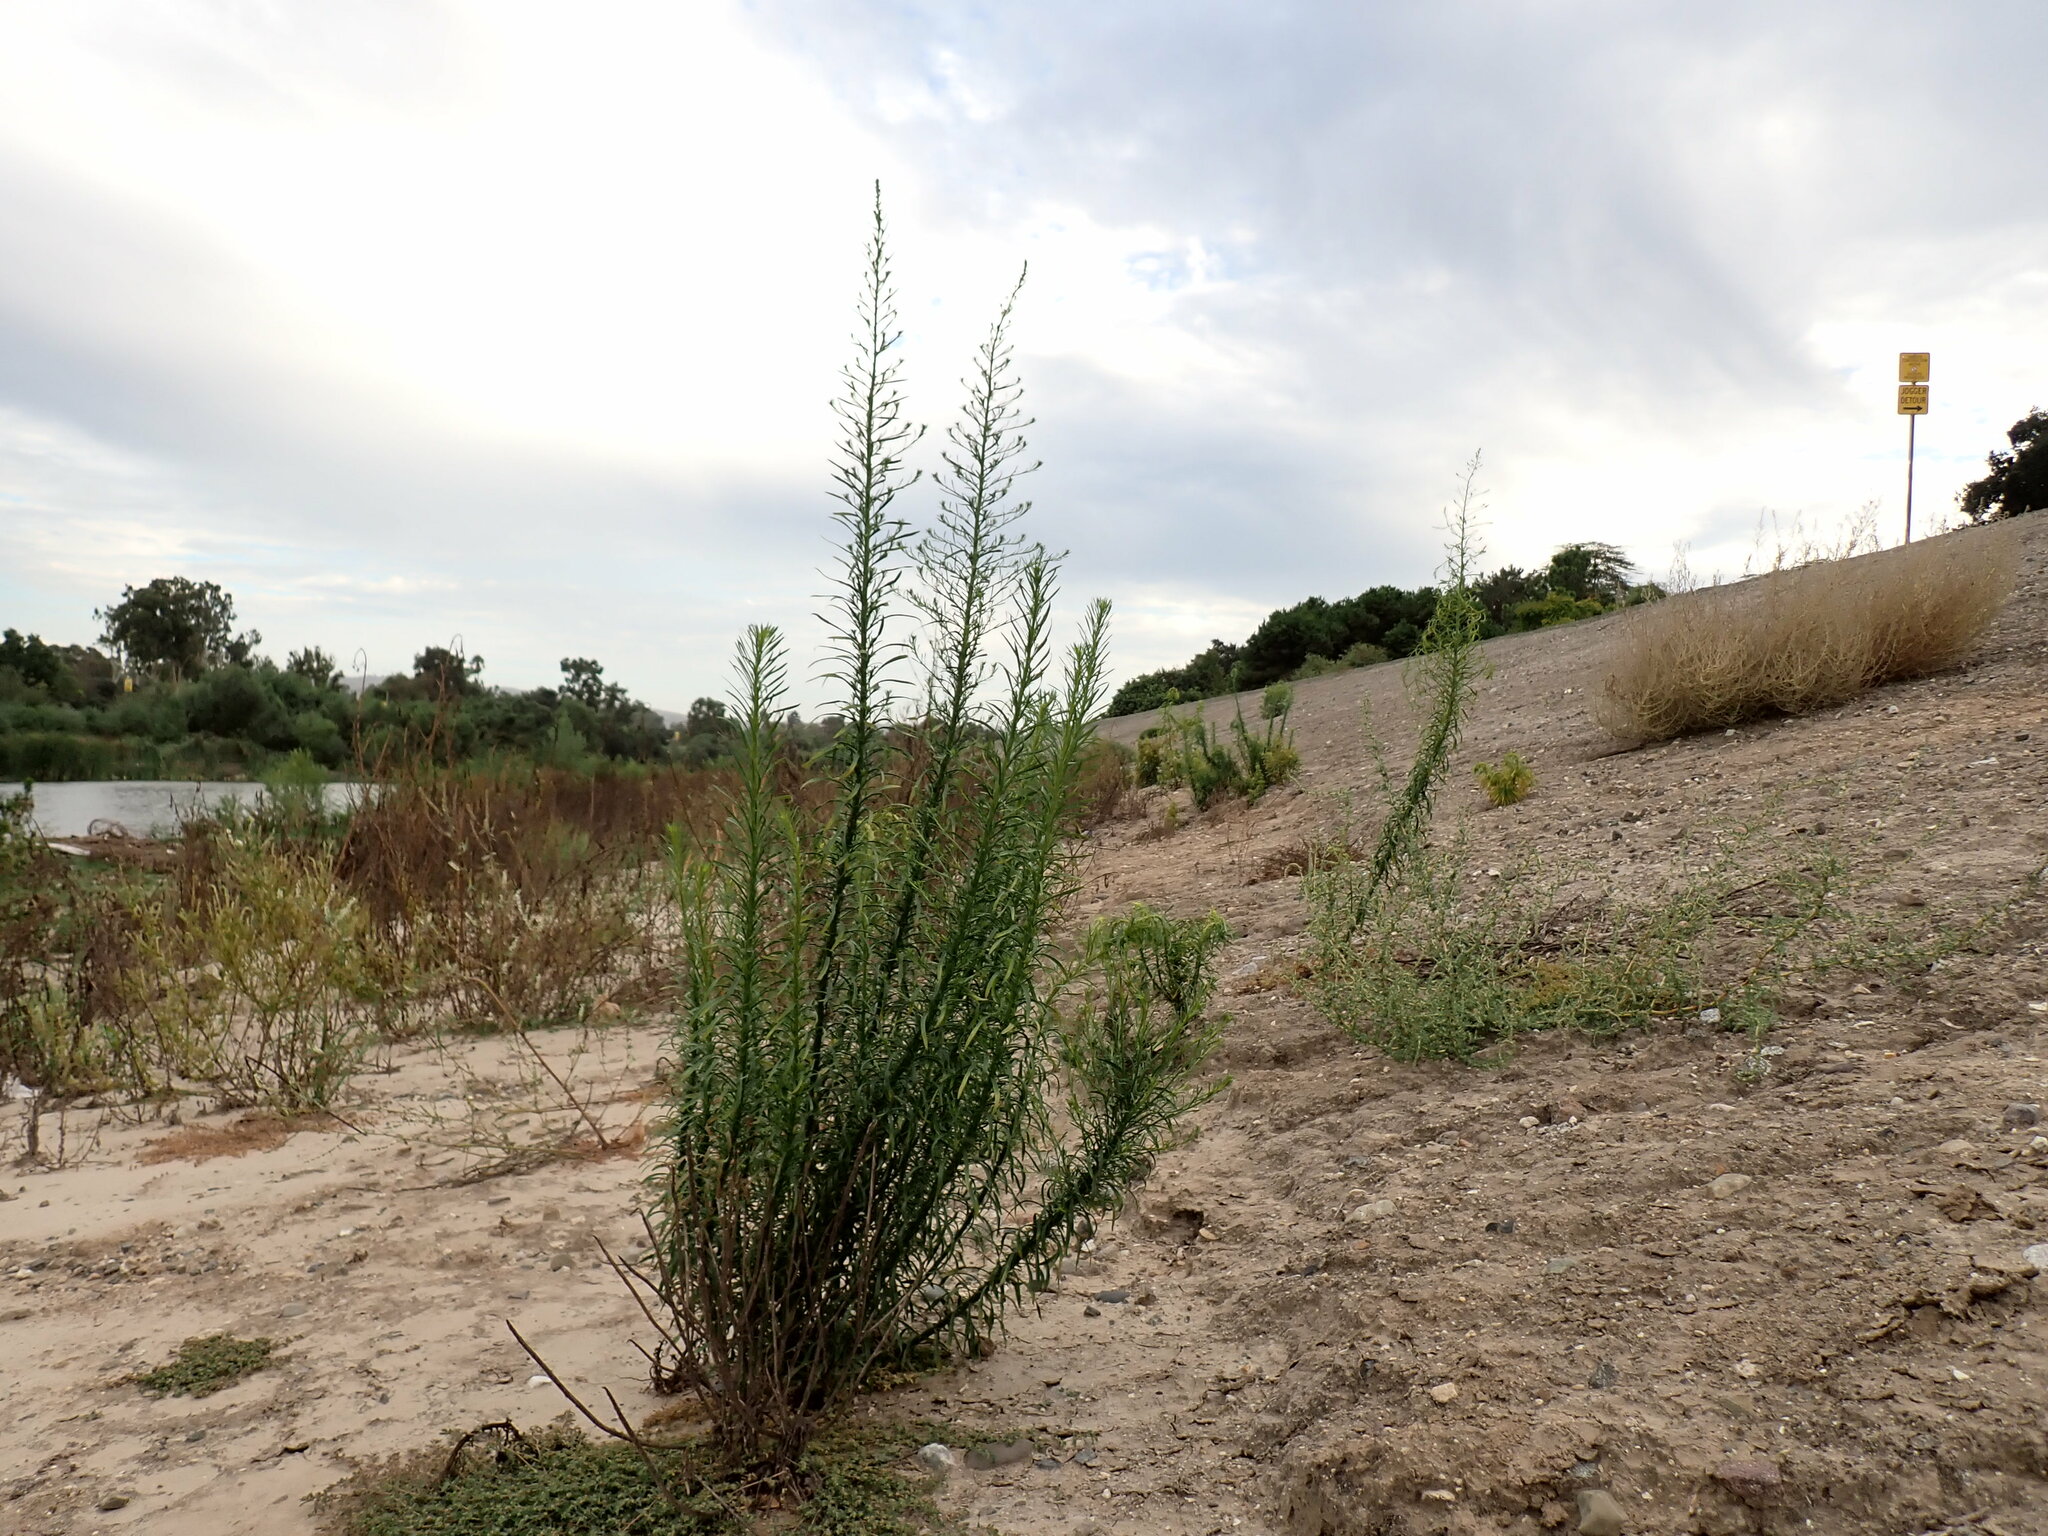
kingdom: Plantae
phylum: Tracheophyta
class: Magnoliopsida
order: Asterales
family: Asteraceae
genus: Erigeron
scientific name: Erigeron canadensis
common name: Canadian fleabane
